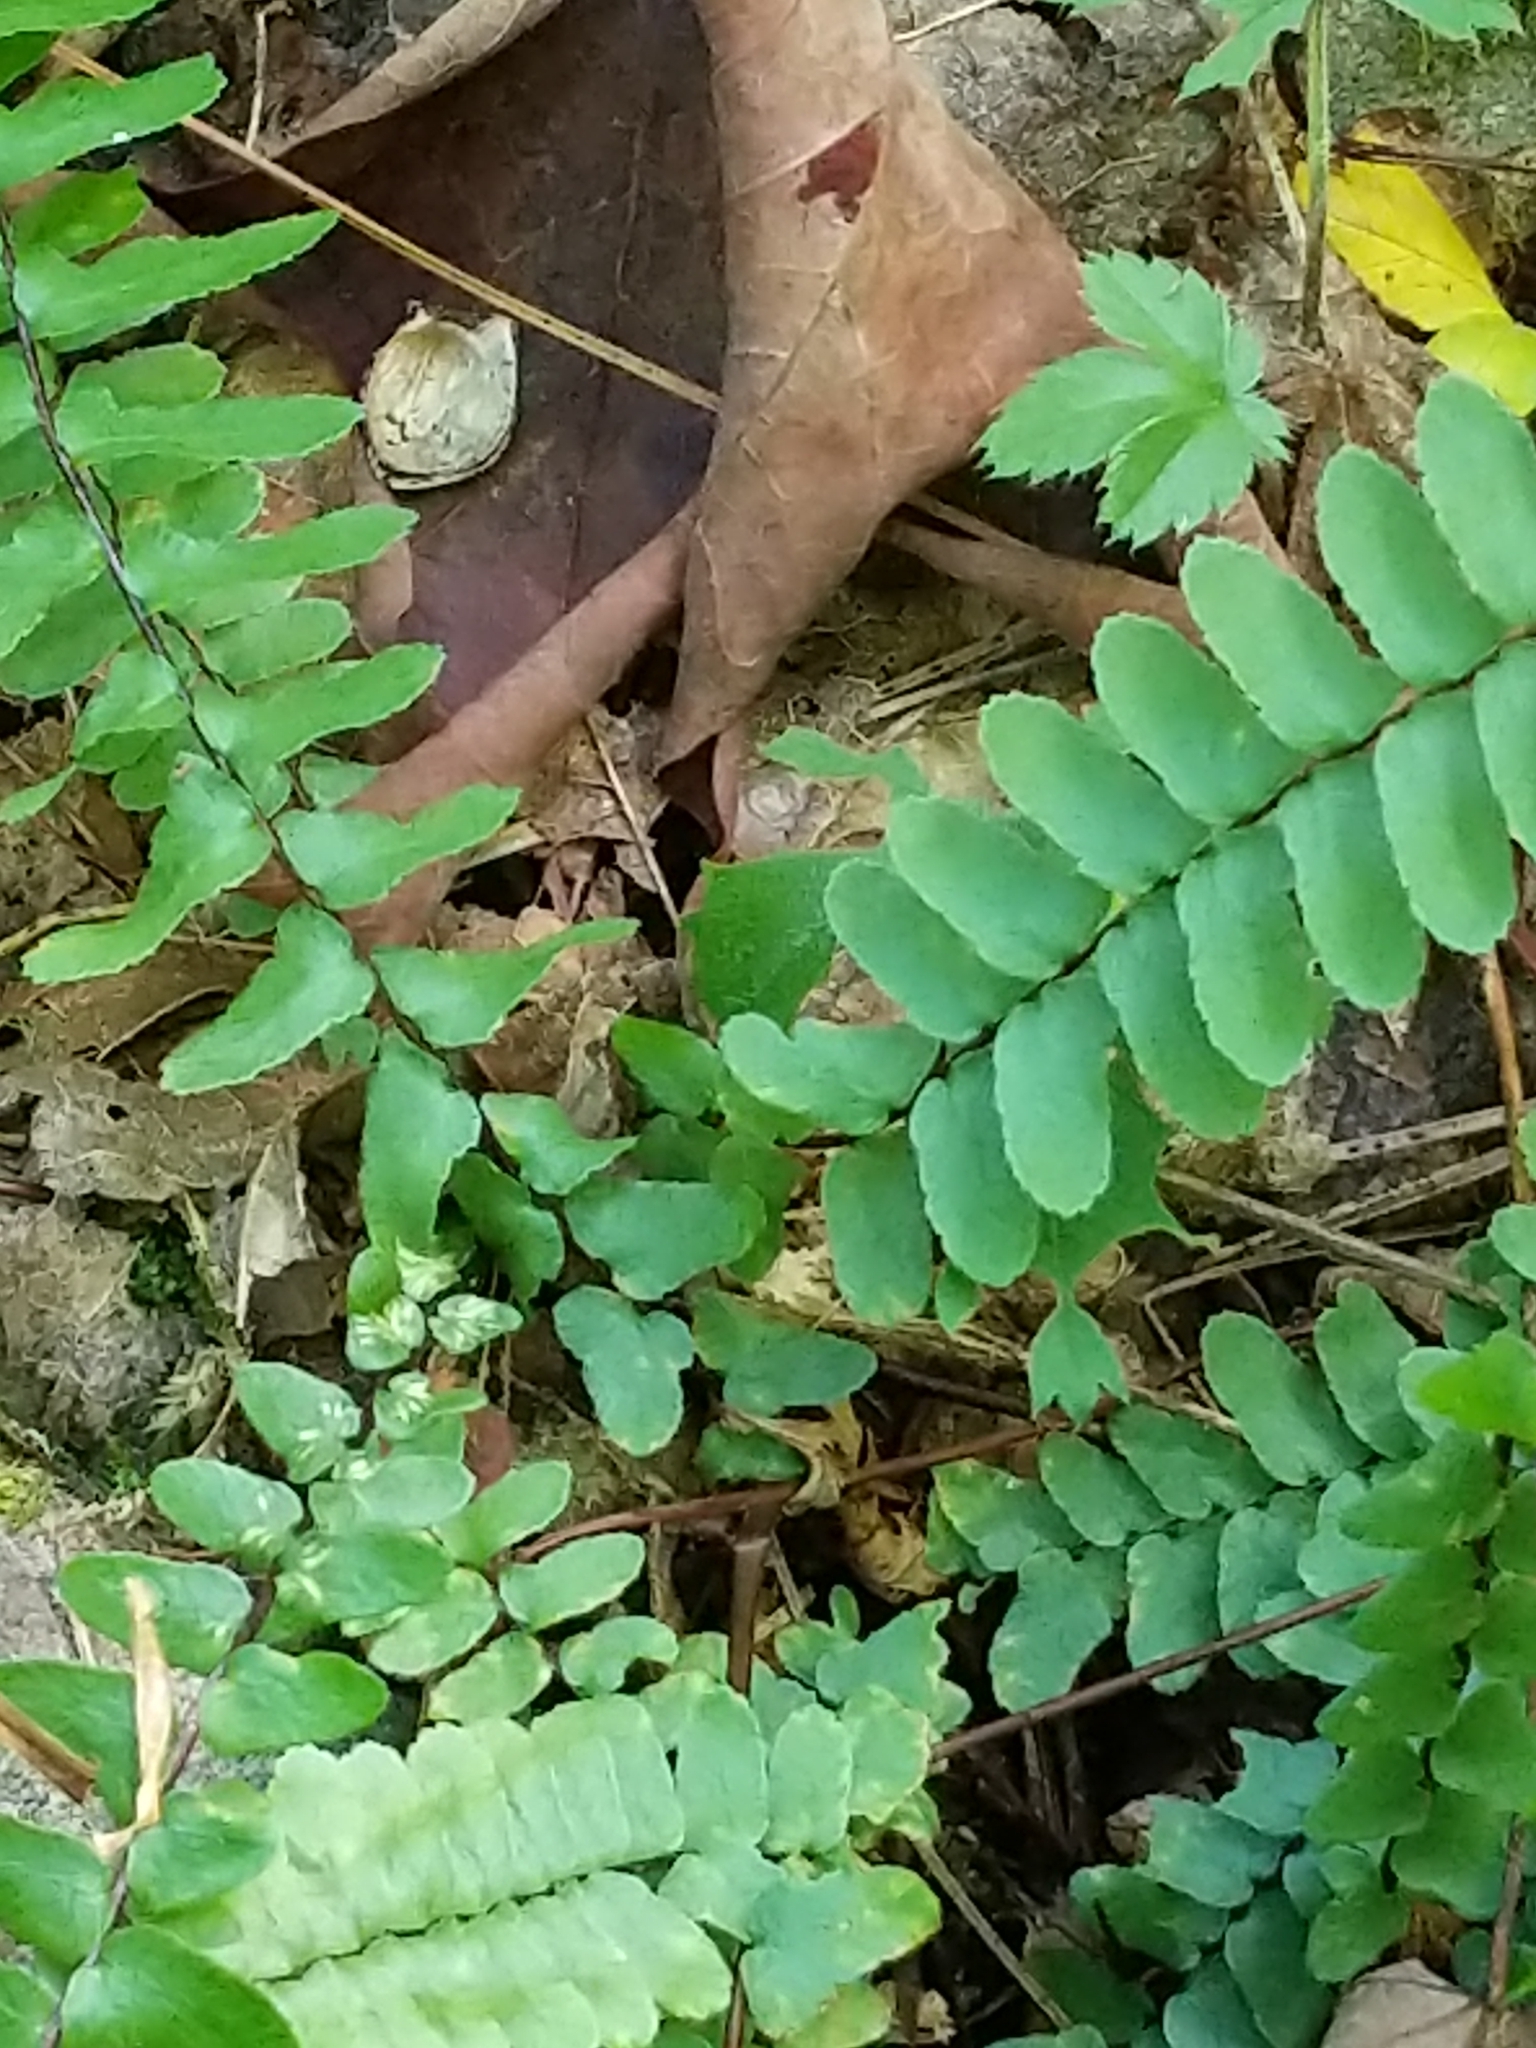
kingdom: Plantae
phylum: Tracheophyta
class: Polypodiopsida
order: Polypodiales
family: Aspleniaceae
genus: Asplenium
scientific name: Asplenium platyneuron
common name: Ebony spleenwort
